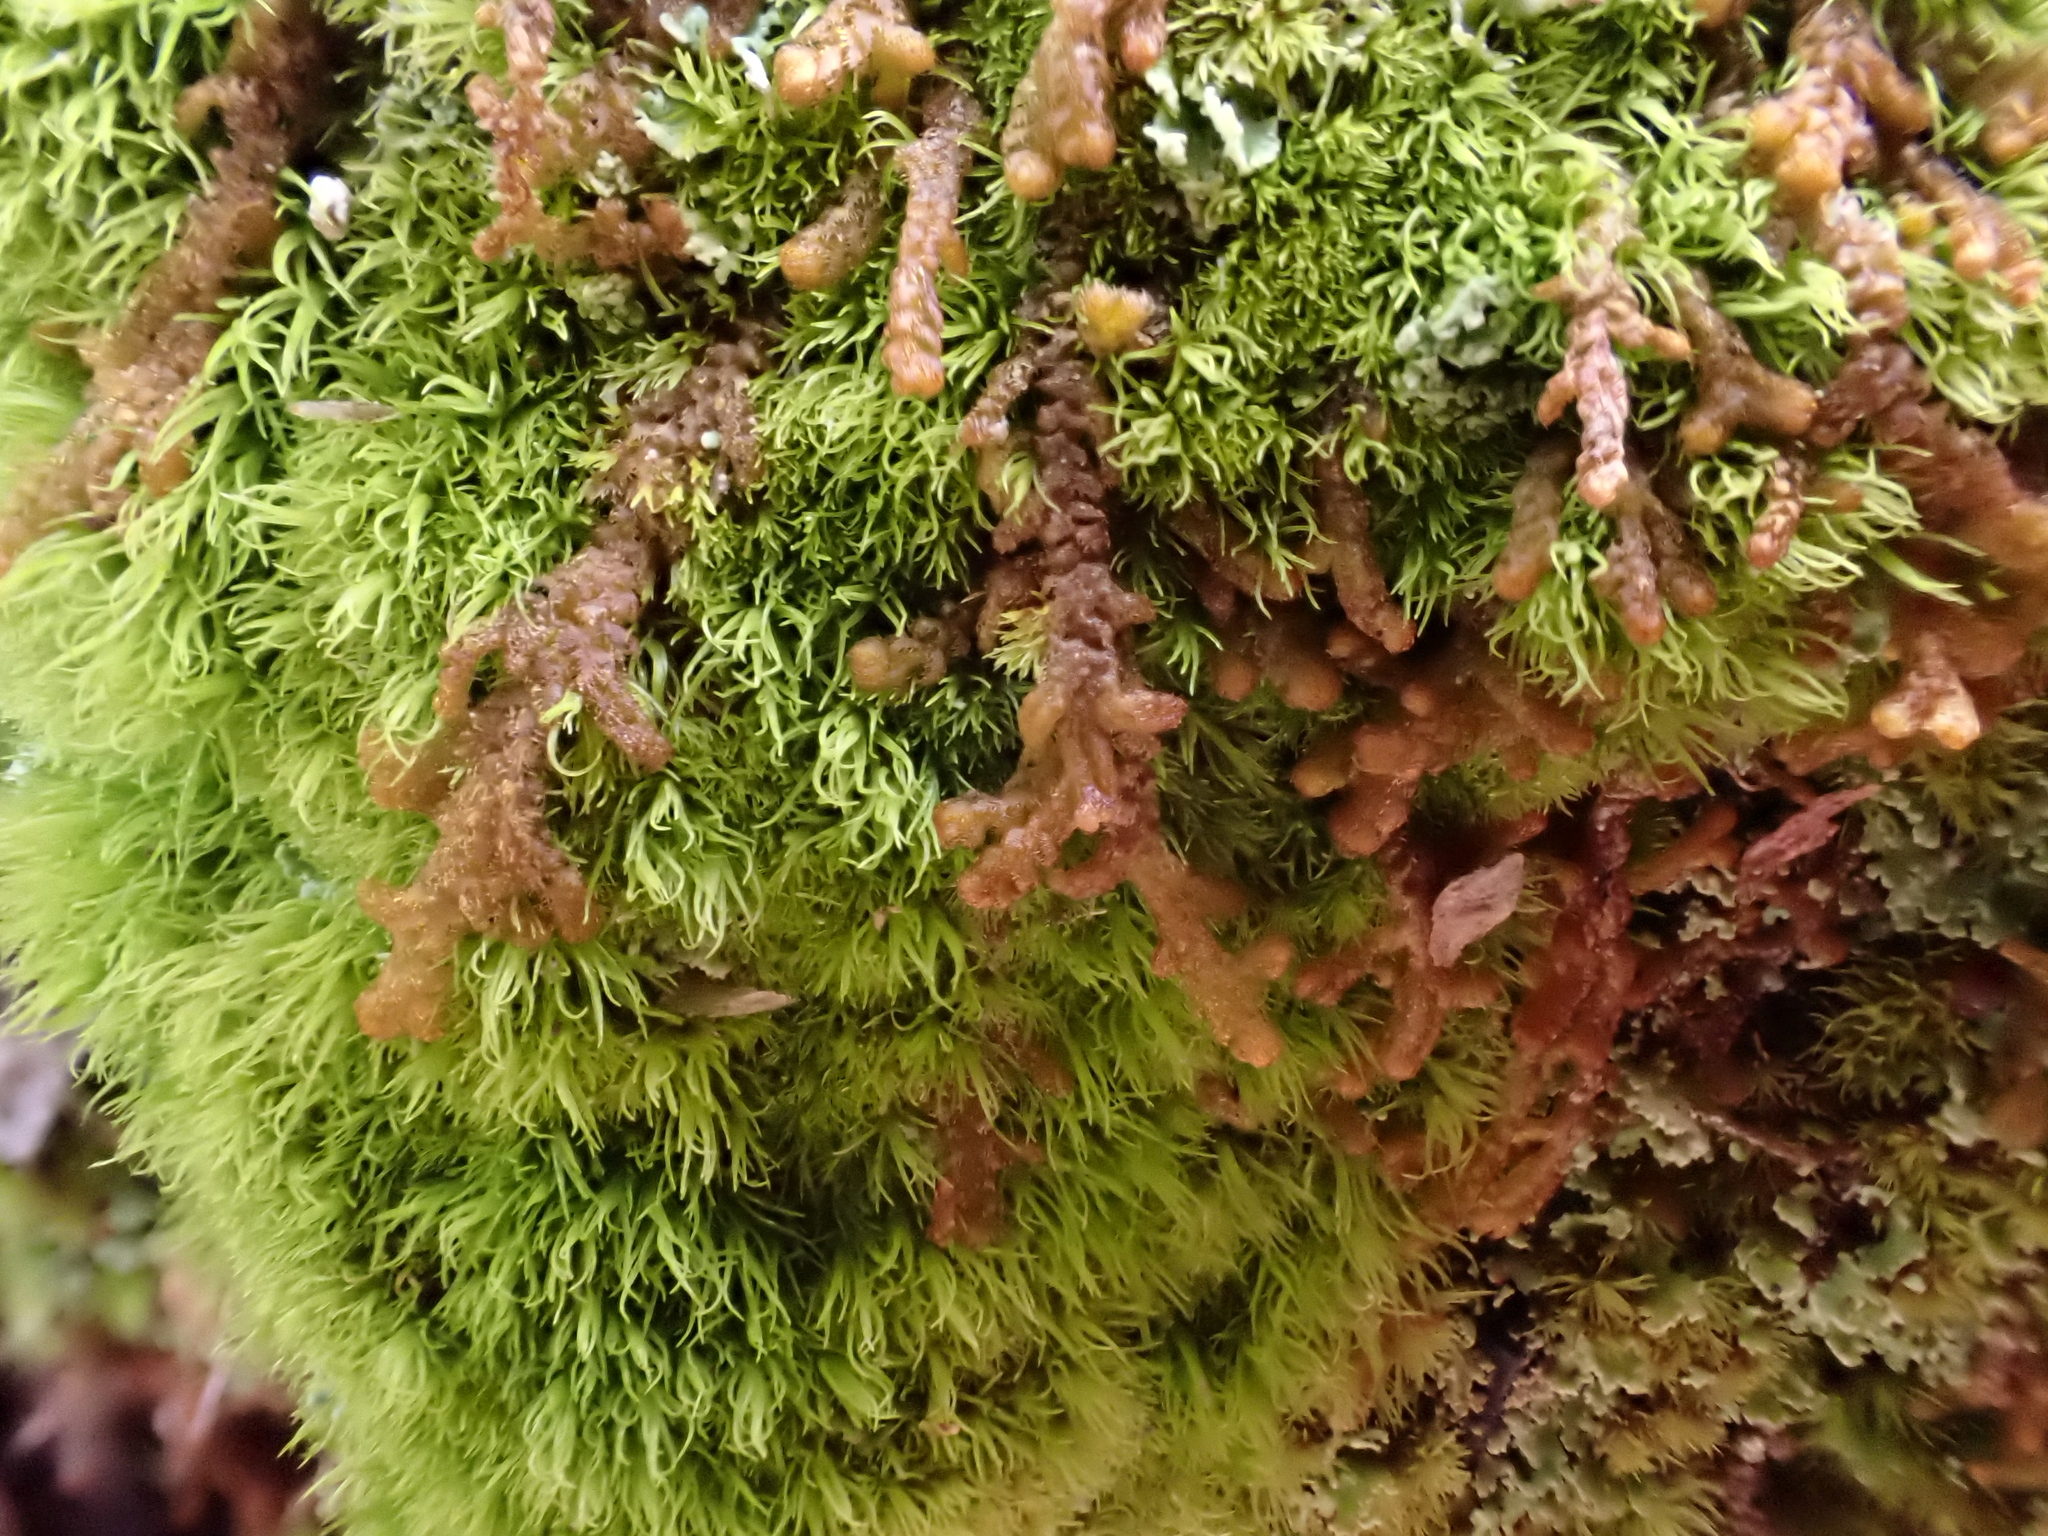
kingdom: Plantae
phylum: Marchantiophyta
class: Jungermanniopsida
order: Ptilidiales
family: Ptilidiaceae
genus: Ptilidium
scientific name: Ptilidium pulcherrimum
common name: Tree fringewort
